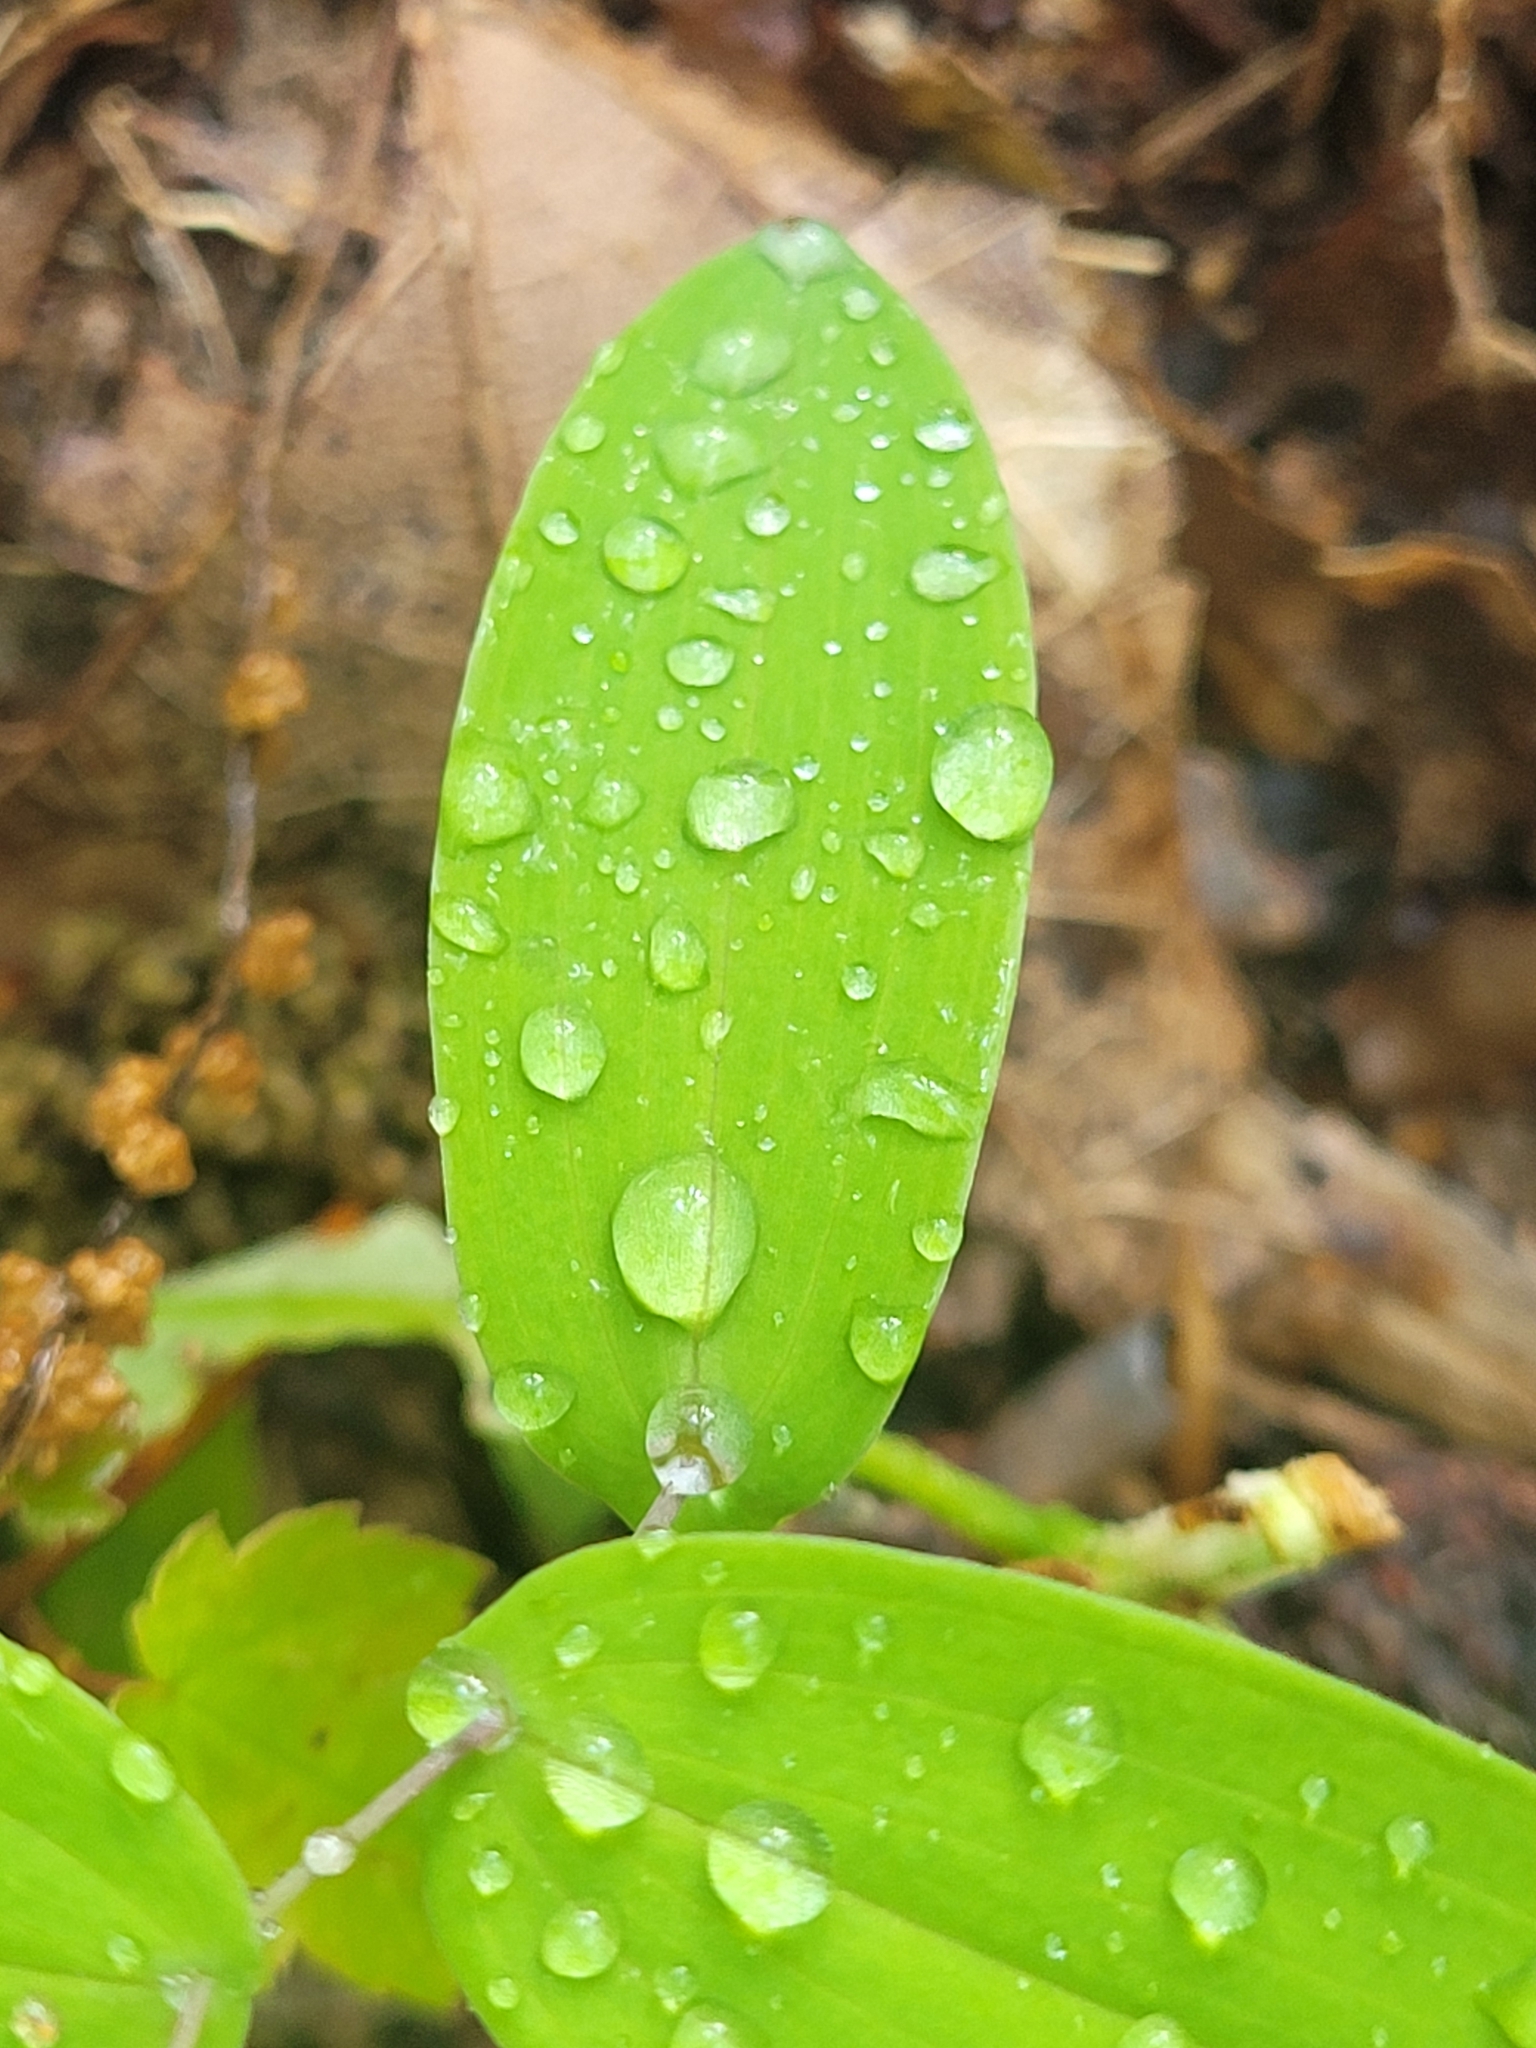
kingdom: Plantae
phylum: Tracheophyta
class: Liliopsida
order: Liliales
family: Colchicaceae
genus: Uvularia
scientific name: Uvularia perfoliata
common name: Perfoliate bellwort
